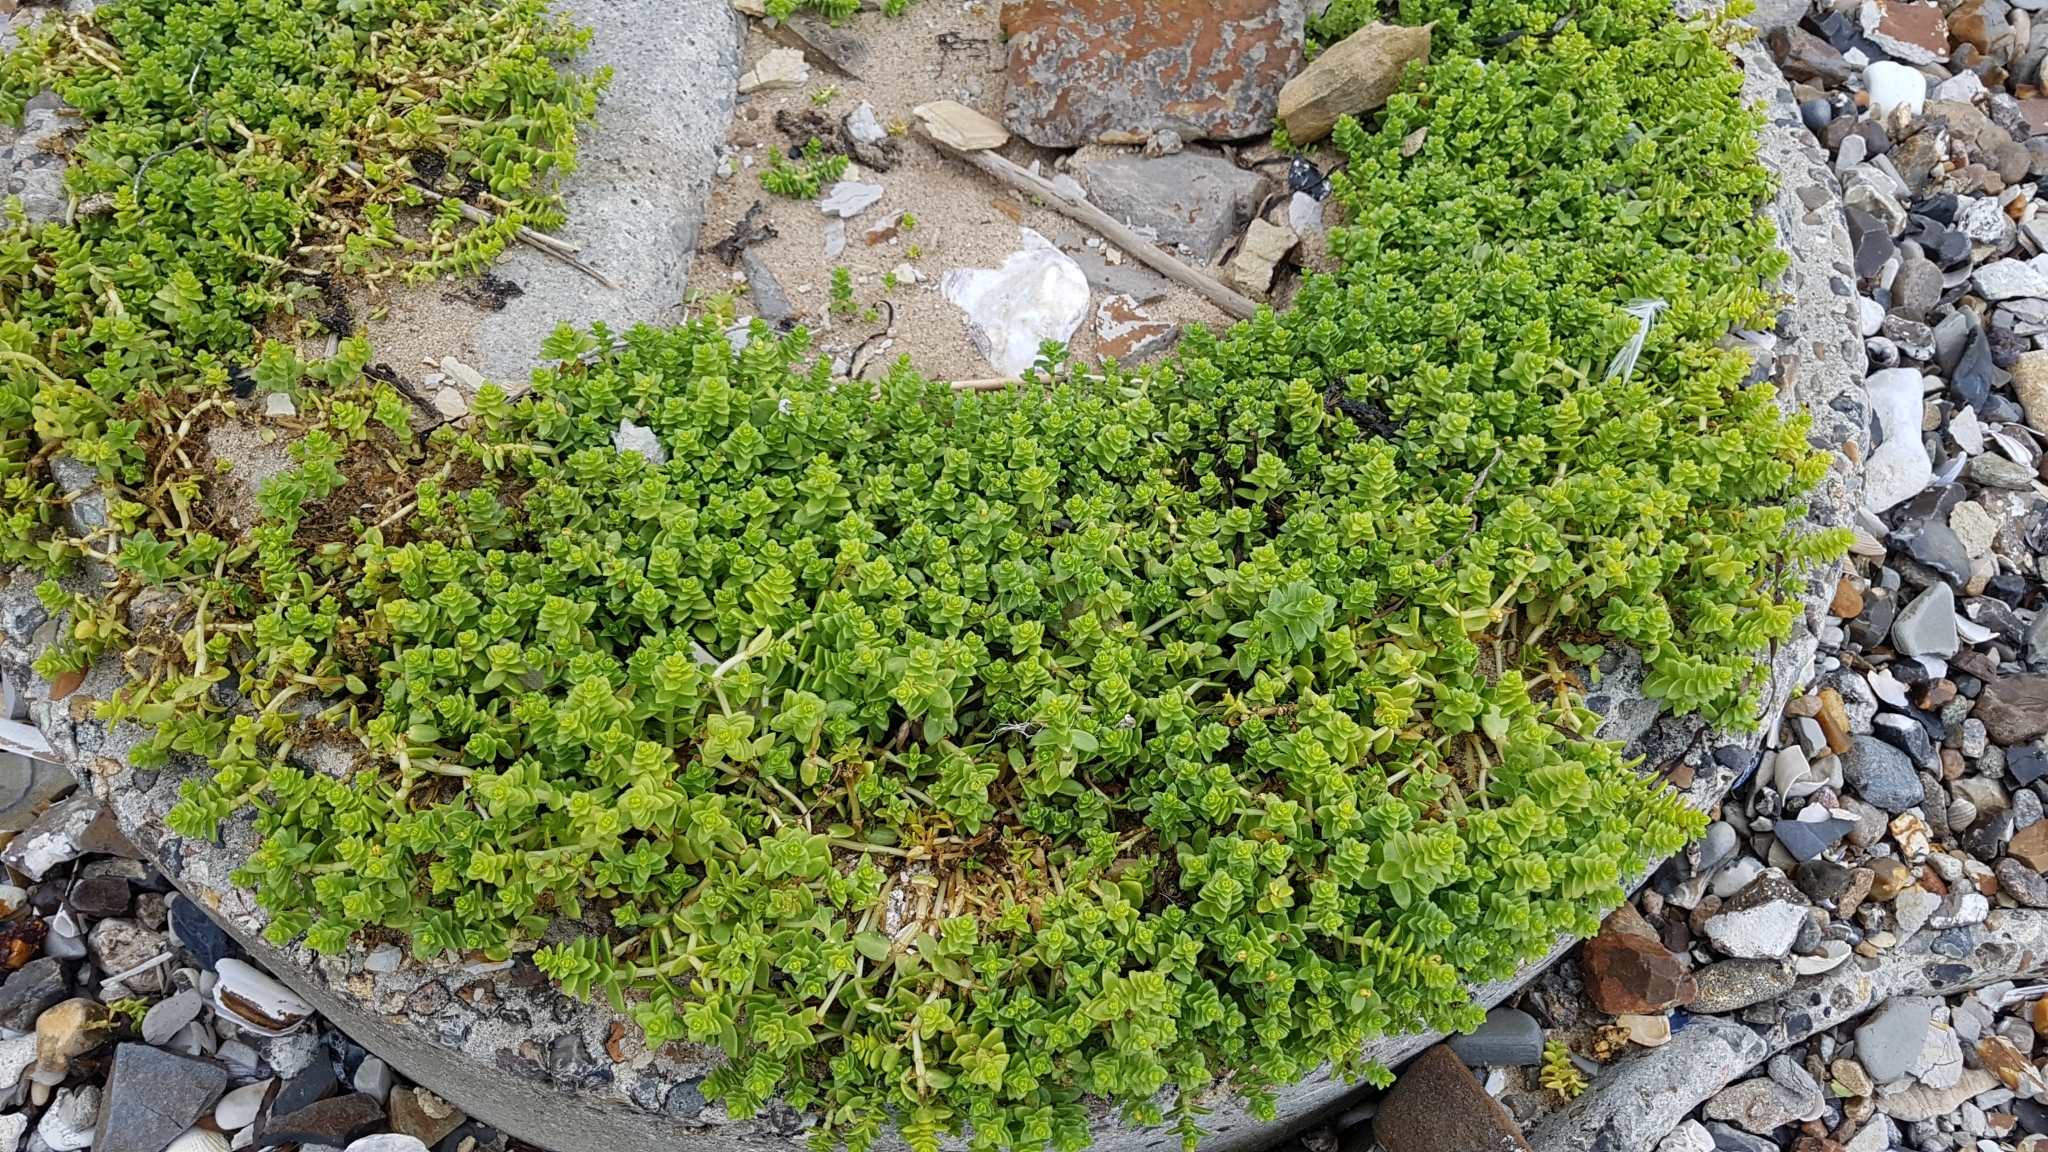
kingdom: Plantae
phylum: Tracheophyta
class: Magnoliopsida
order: Caryophyllales
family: Caryophyllaceae
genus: Honckenya
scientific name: Honckenya peploides
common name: Sea sandwort
